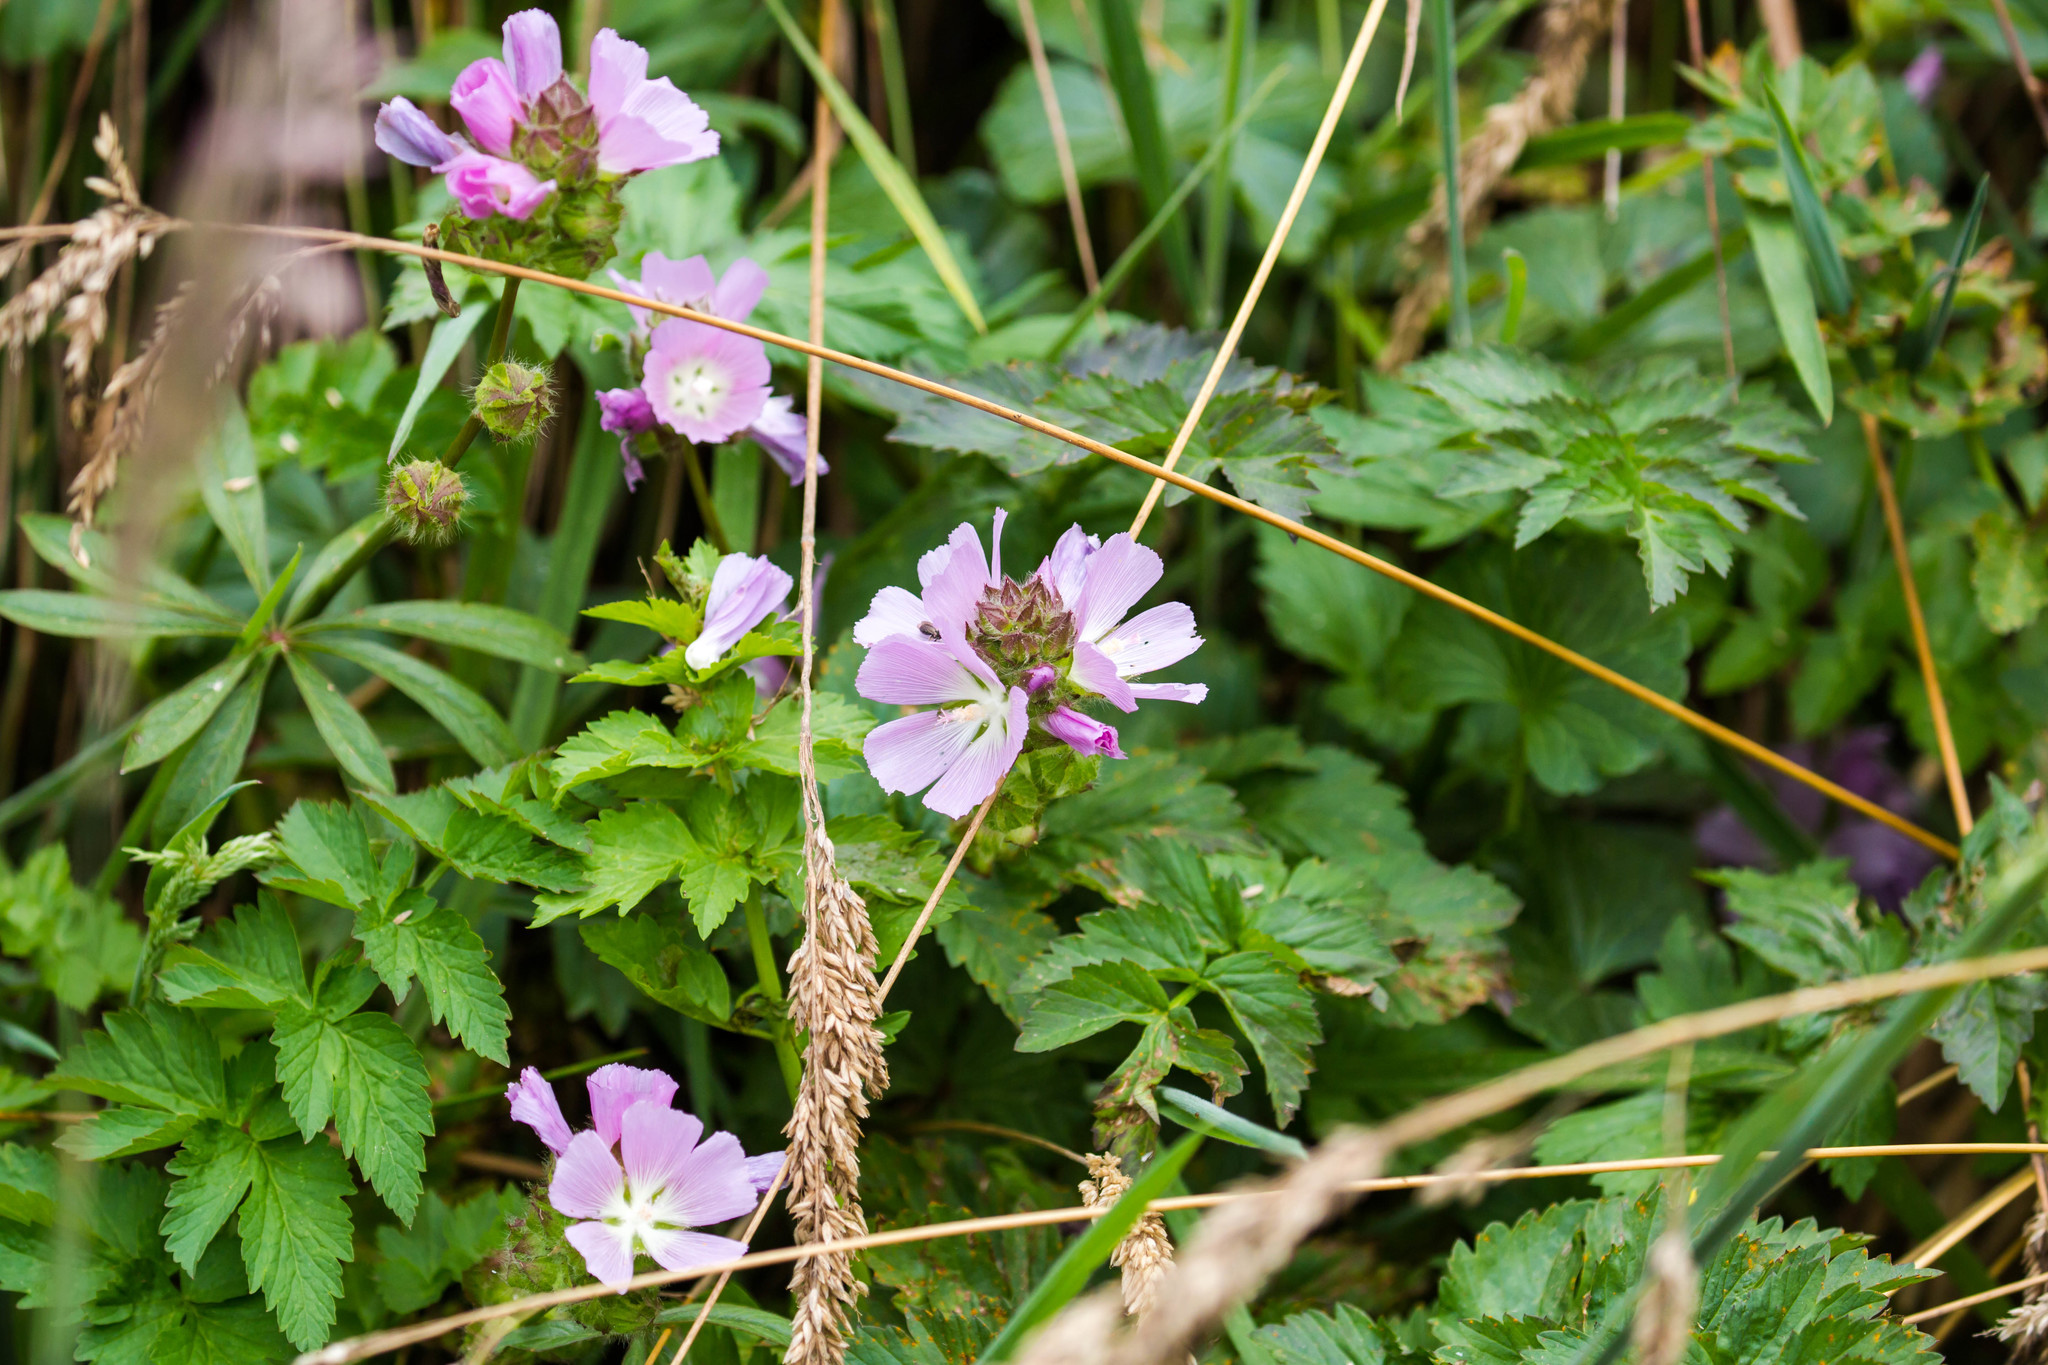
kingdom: Plantae
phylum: Tracheophyta
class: Magnoliopsida
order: Malvales
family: Malvaceae
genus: Sidalcea
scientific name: Sidalcea calycosa
